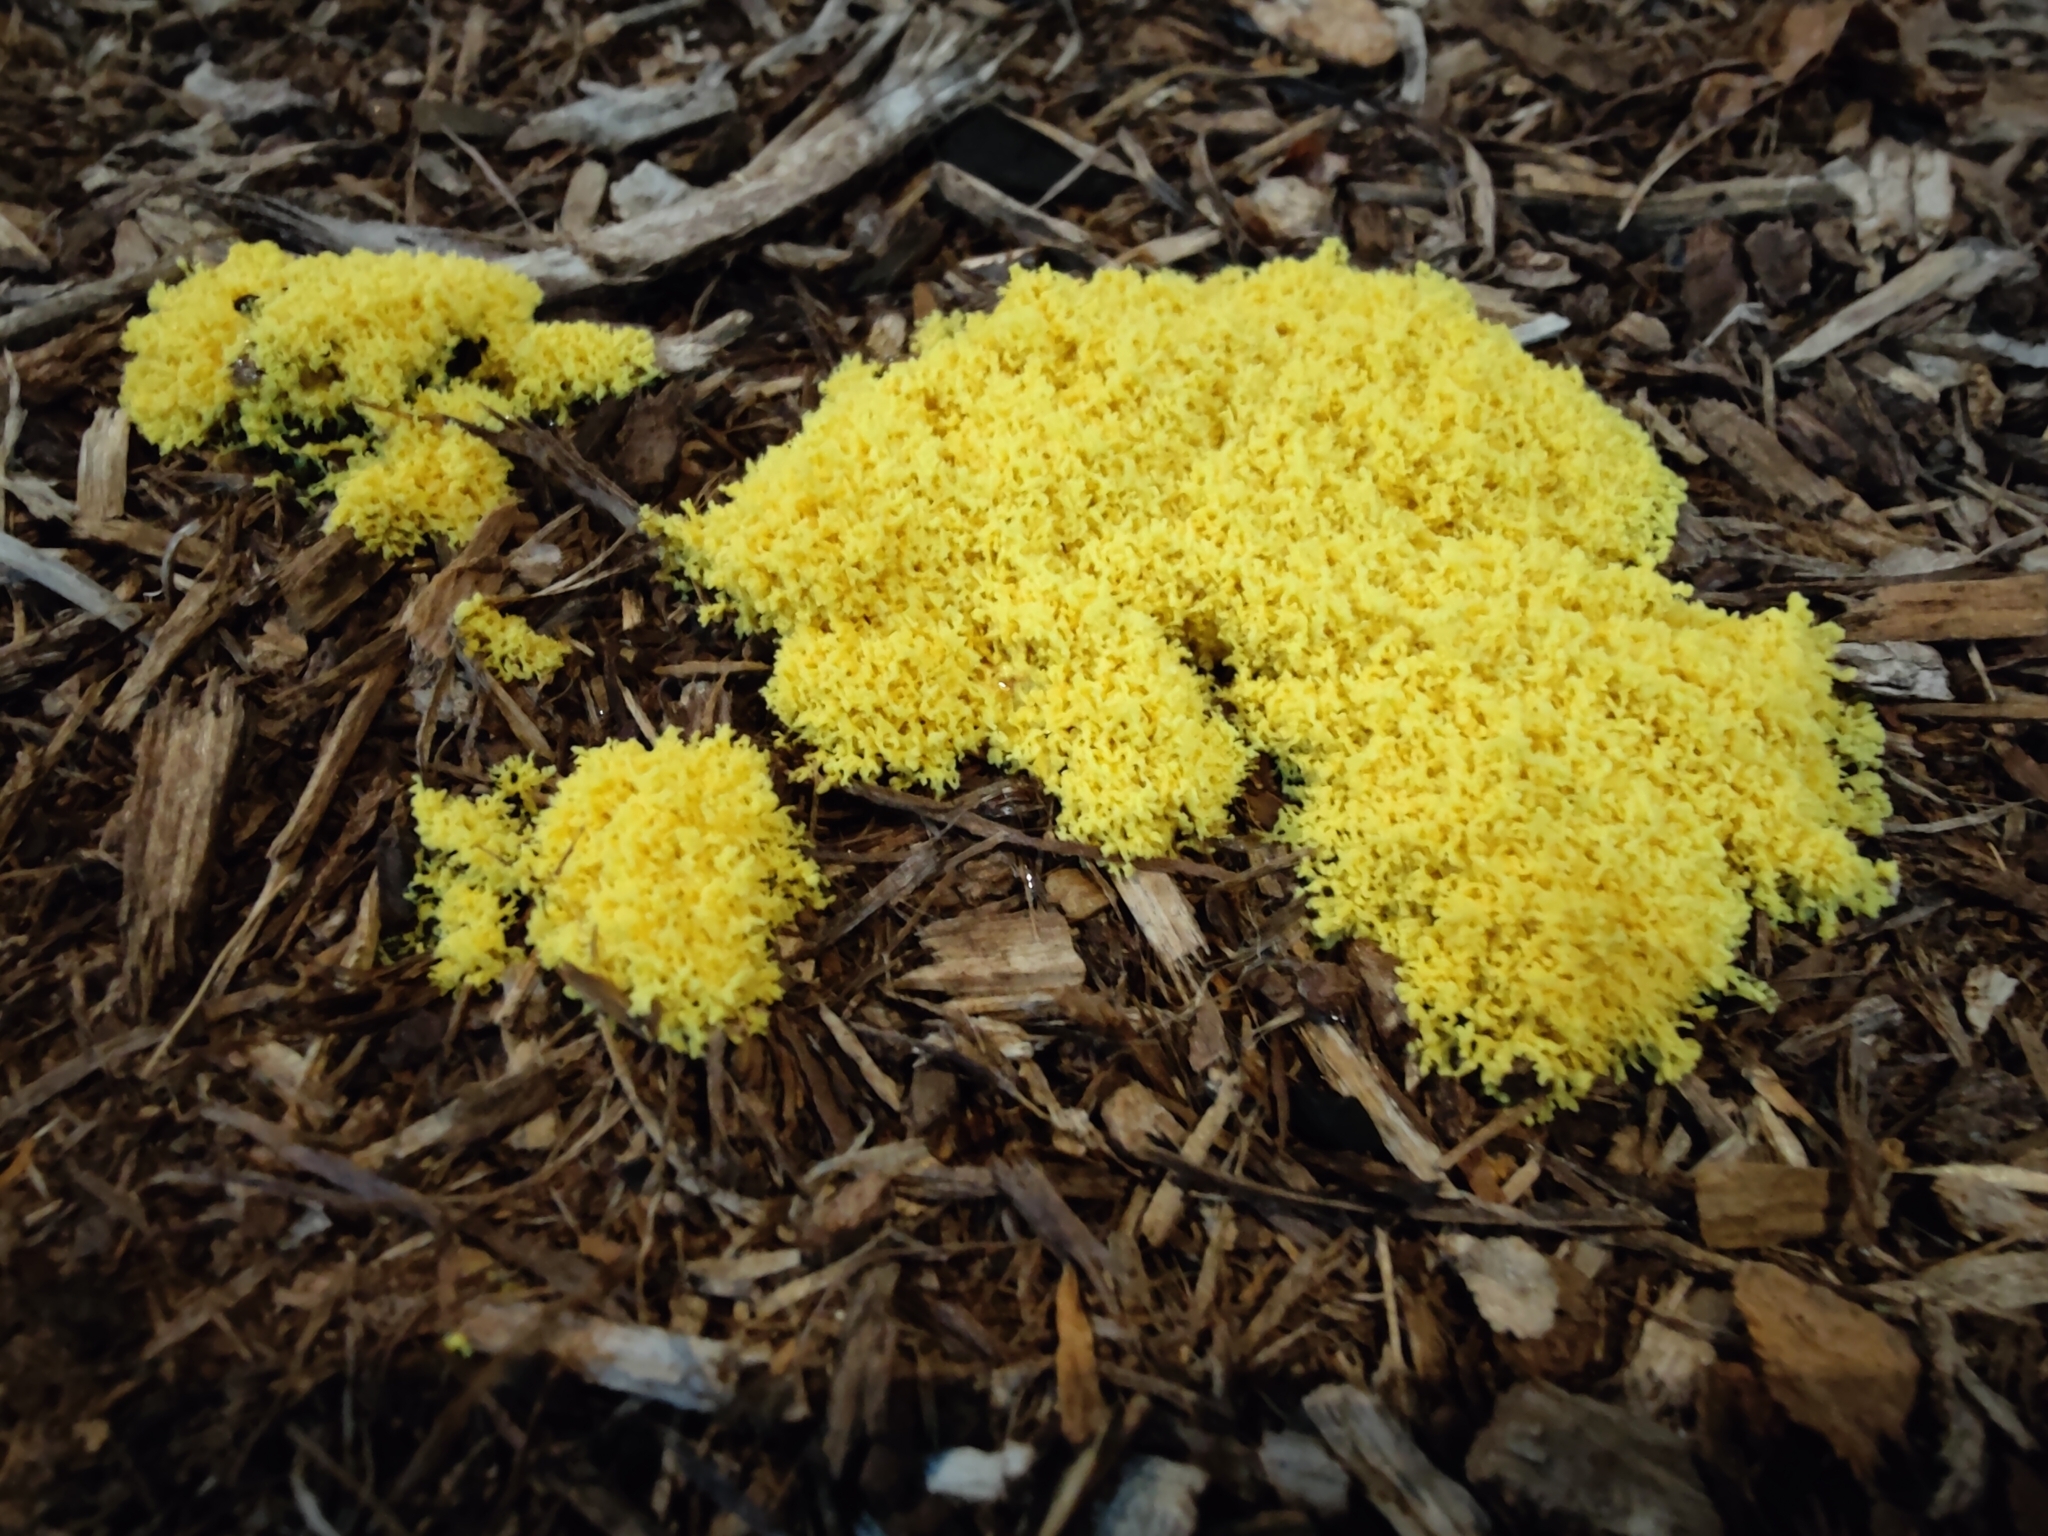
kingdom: Protozoa
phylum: Mycetozoa
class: Myxomycetes
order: Physarales
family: Physaraceae
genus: Fuligo
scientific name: Fuligo septica
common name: Dog vomit slime mold
